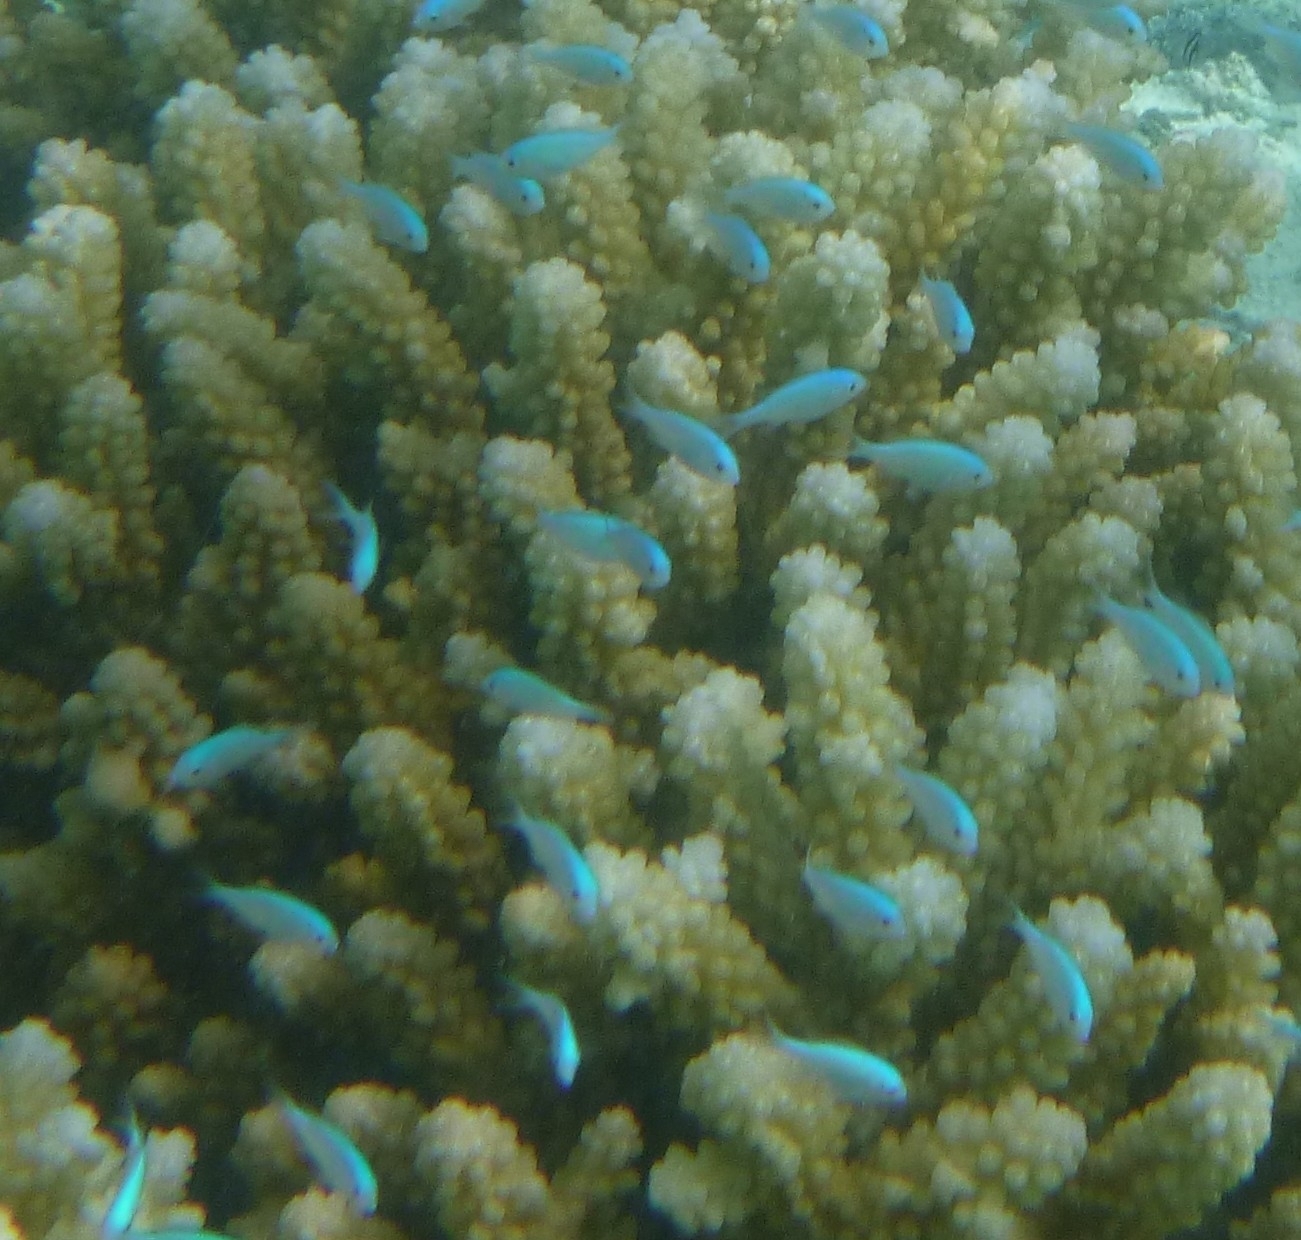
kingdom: Animalia
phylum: Chordata
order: Perciformes
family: Pomacentridae
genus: Chromis
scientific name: Chromis viridis
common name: Blue-green chromis
